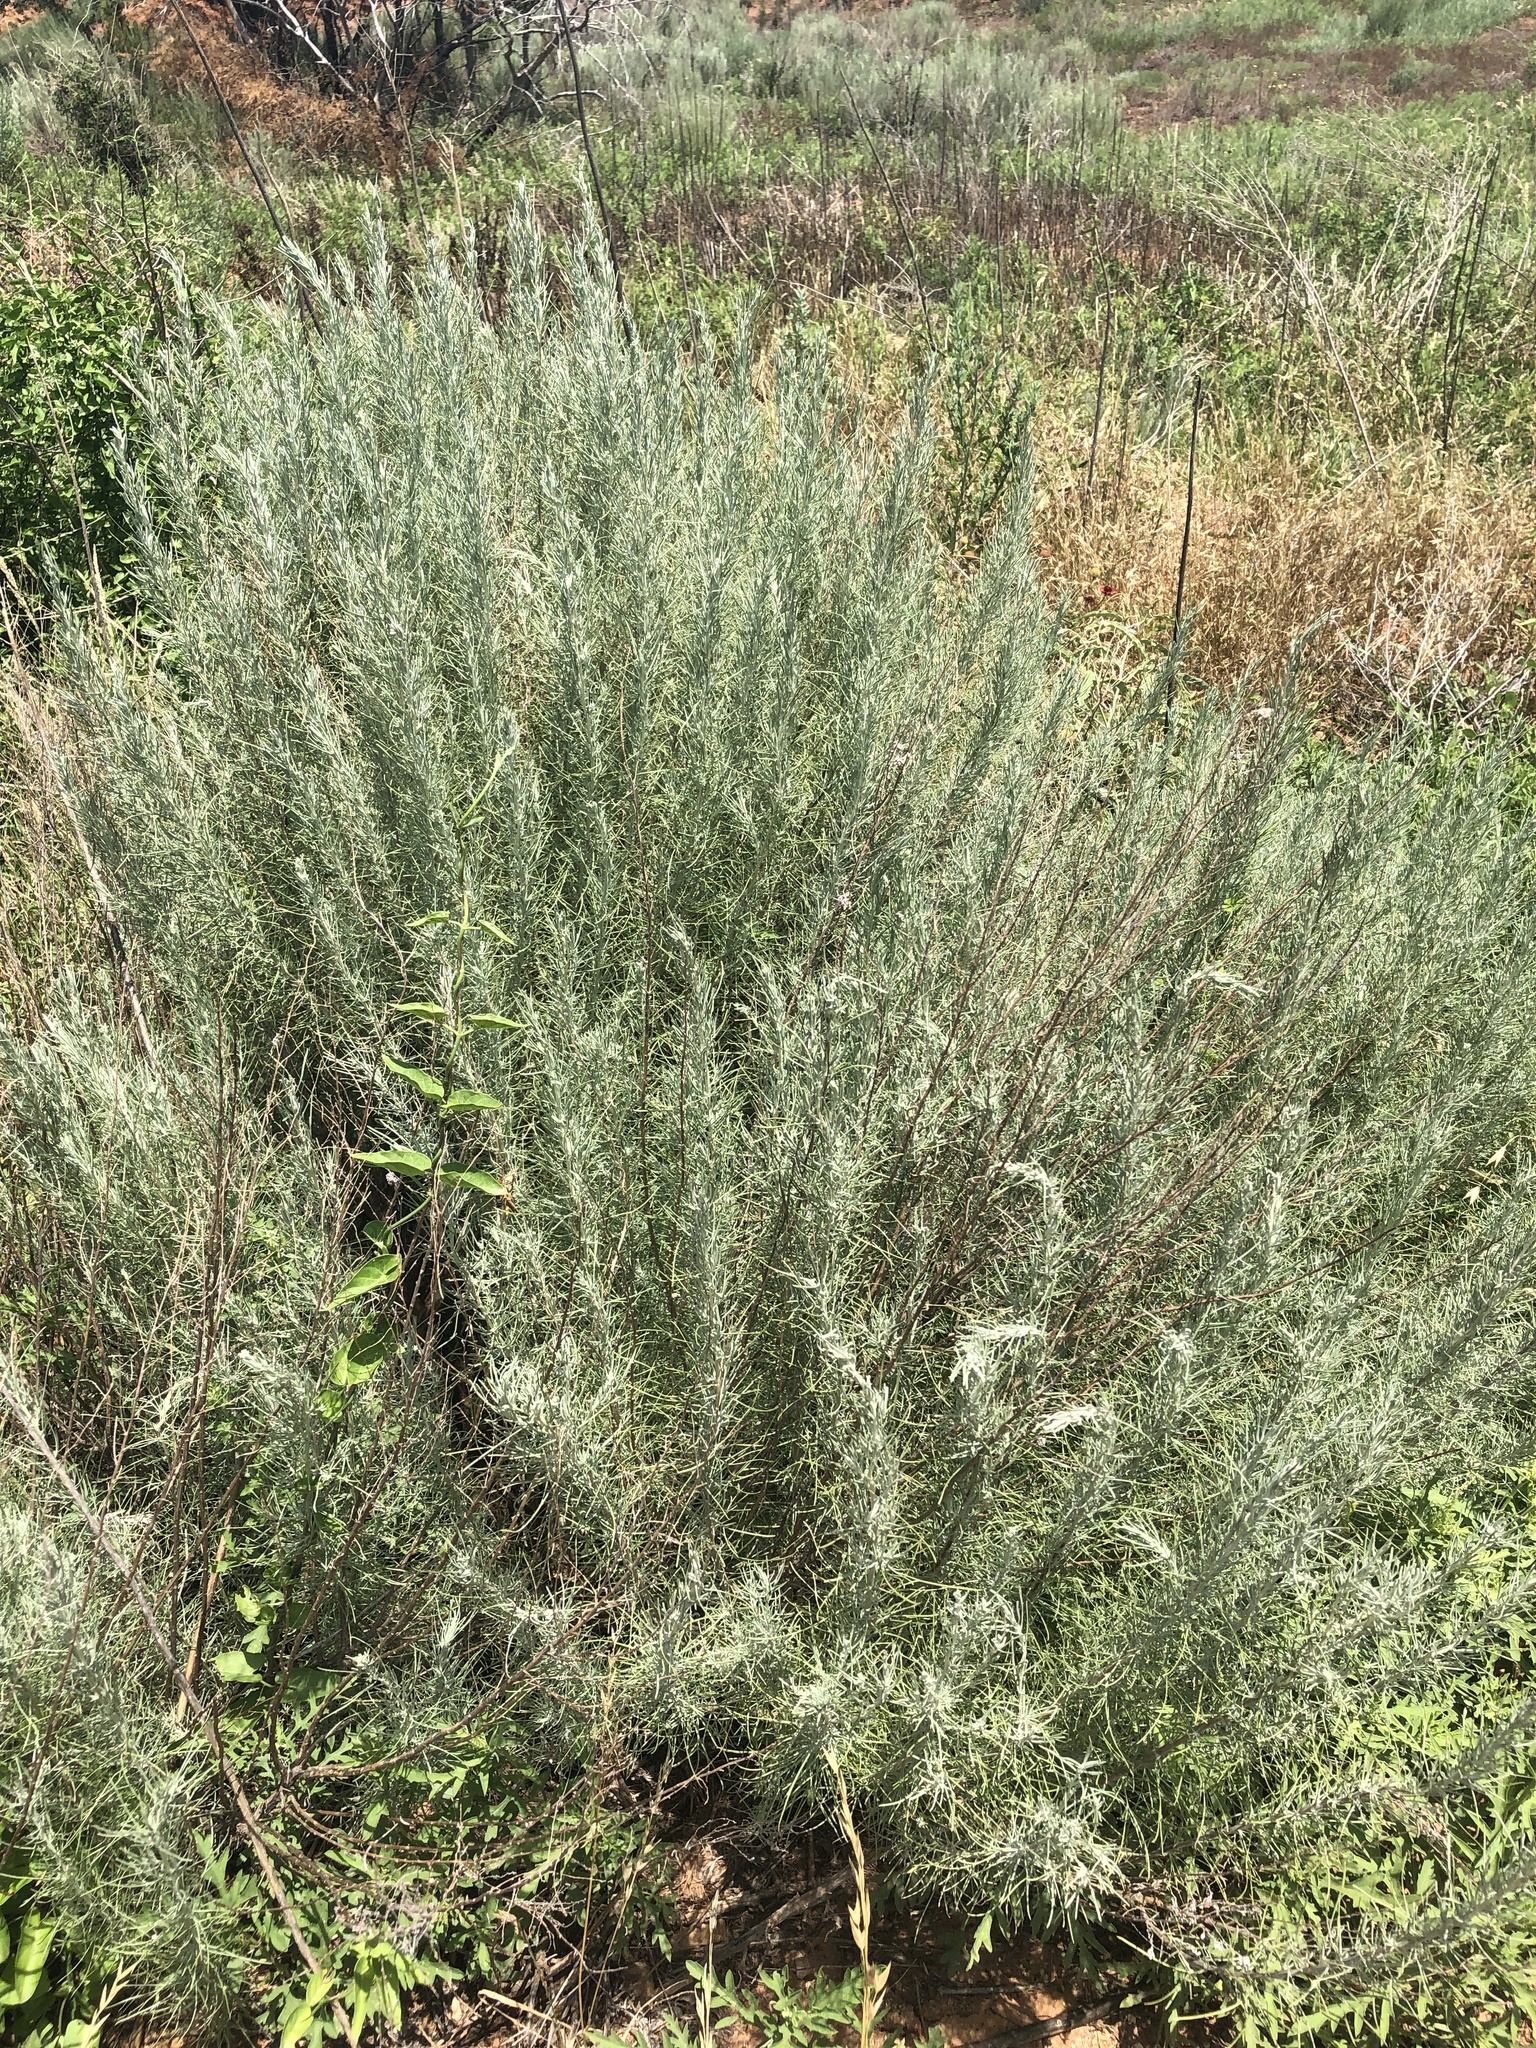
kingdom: Plantae
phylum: Tracheophyta
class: Magnoliopsida
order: Asterales
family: Asteraceae
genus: Artemisia
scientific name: Artemisia filifolia
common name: Sand-sage
